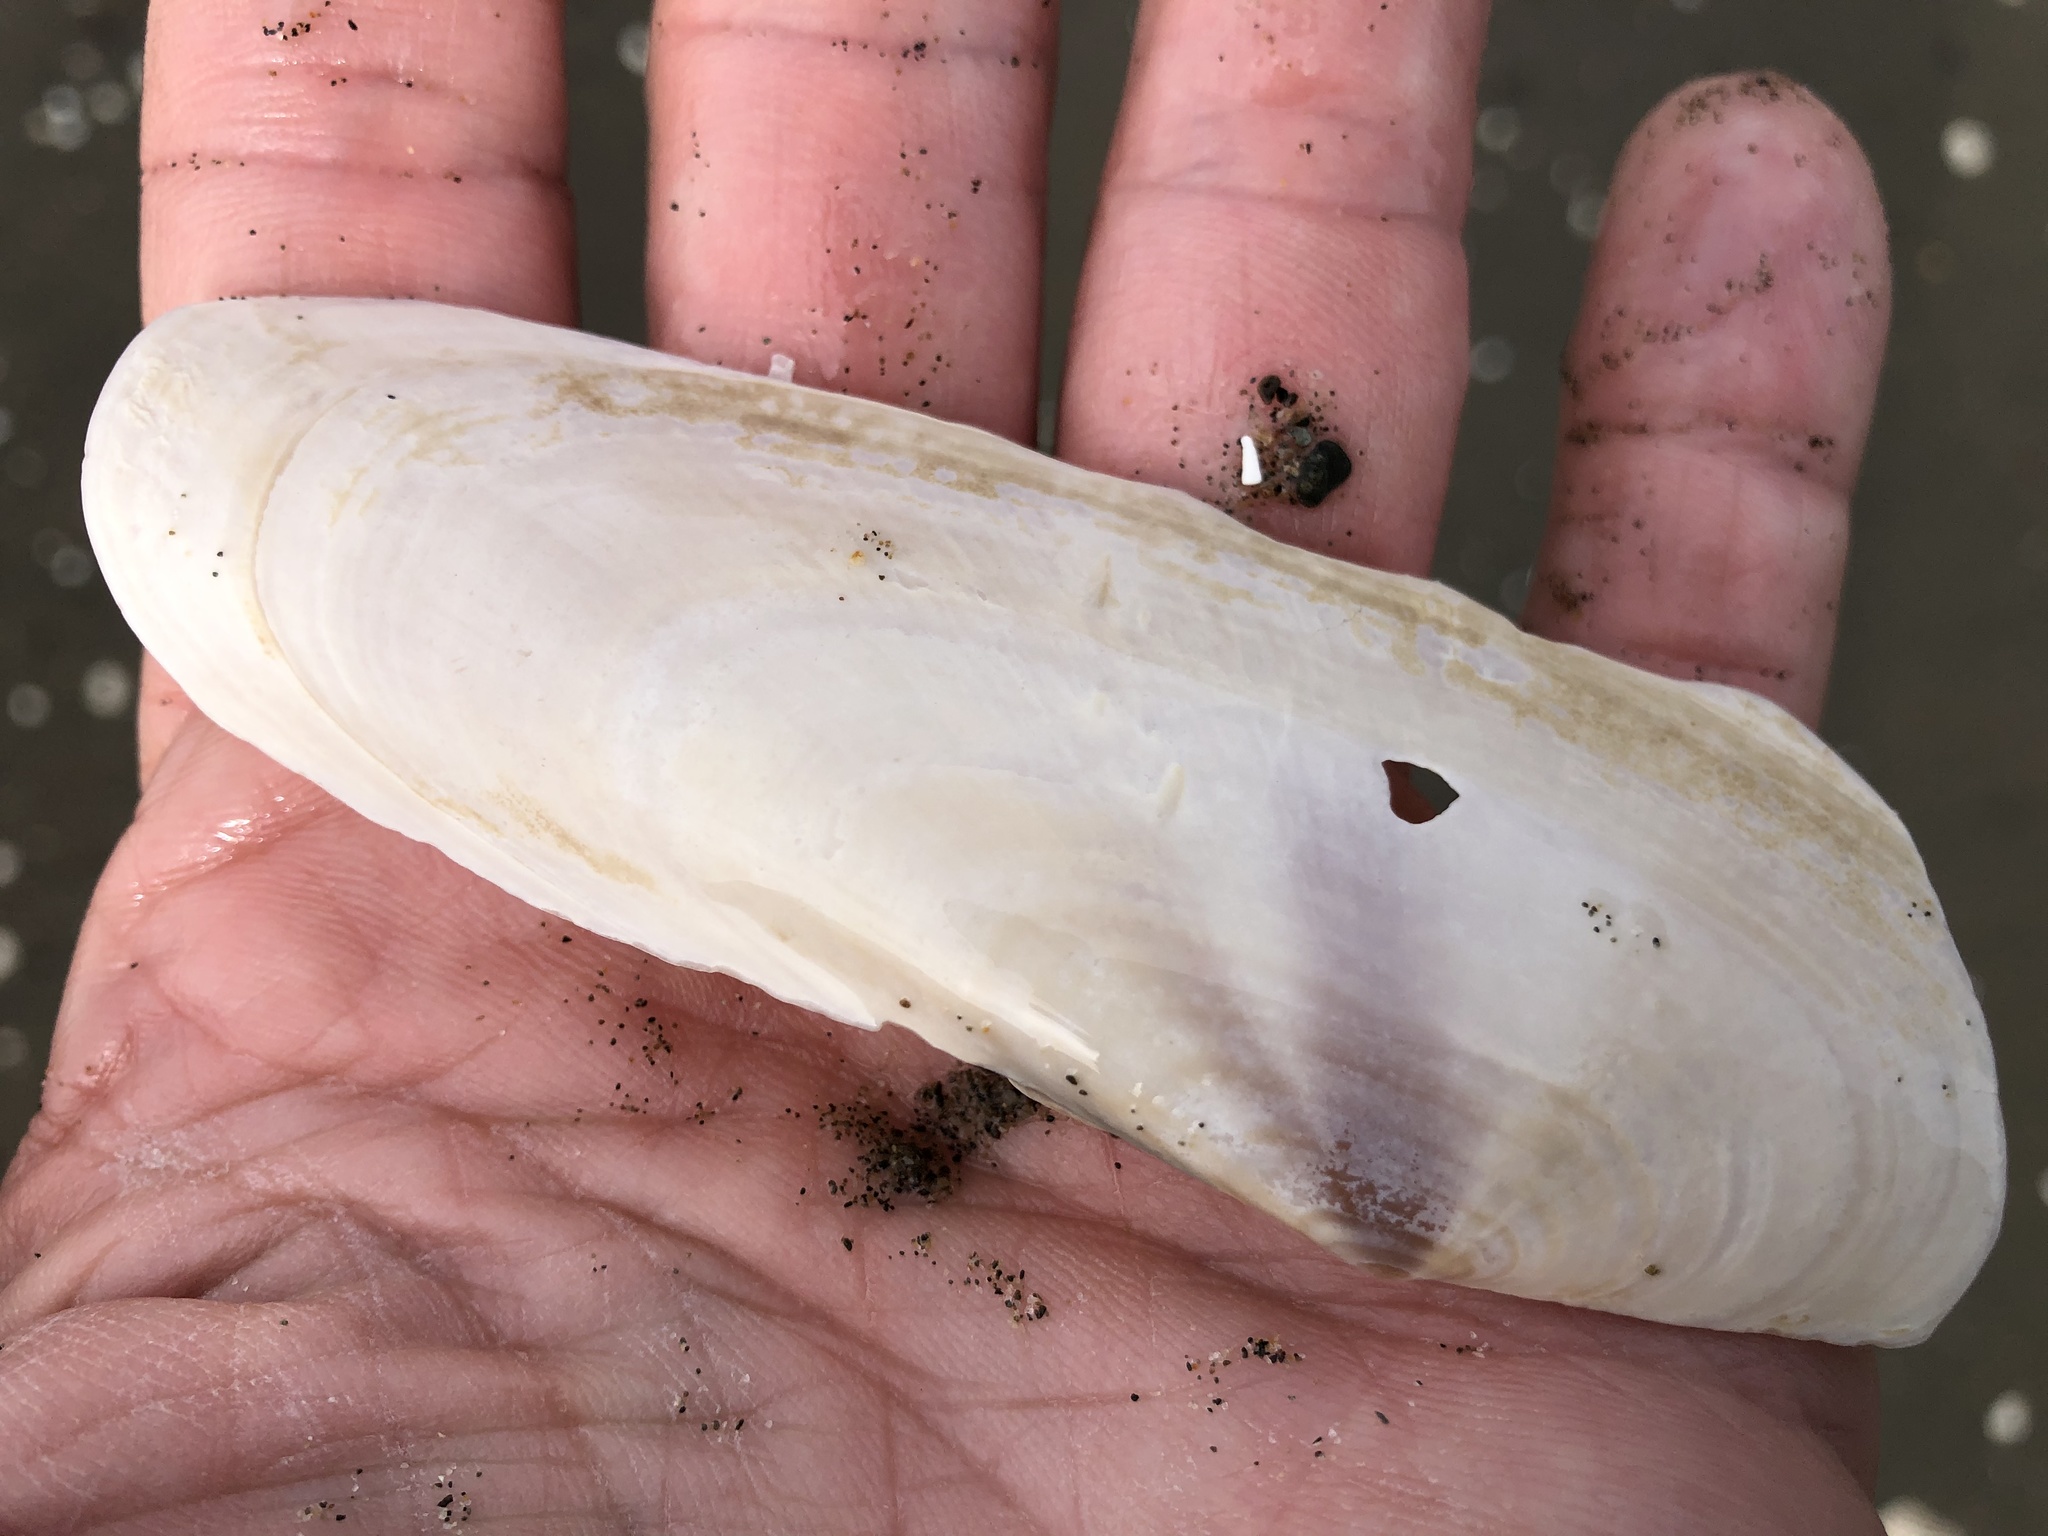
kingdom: Animalia
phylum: Mollusca
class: Bivalvia
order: Adapedonta
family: Pharidae
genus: Siliqua
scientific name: Siliqua patula
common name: Pacific razor clam
